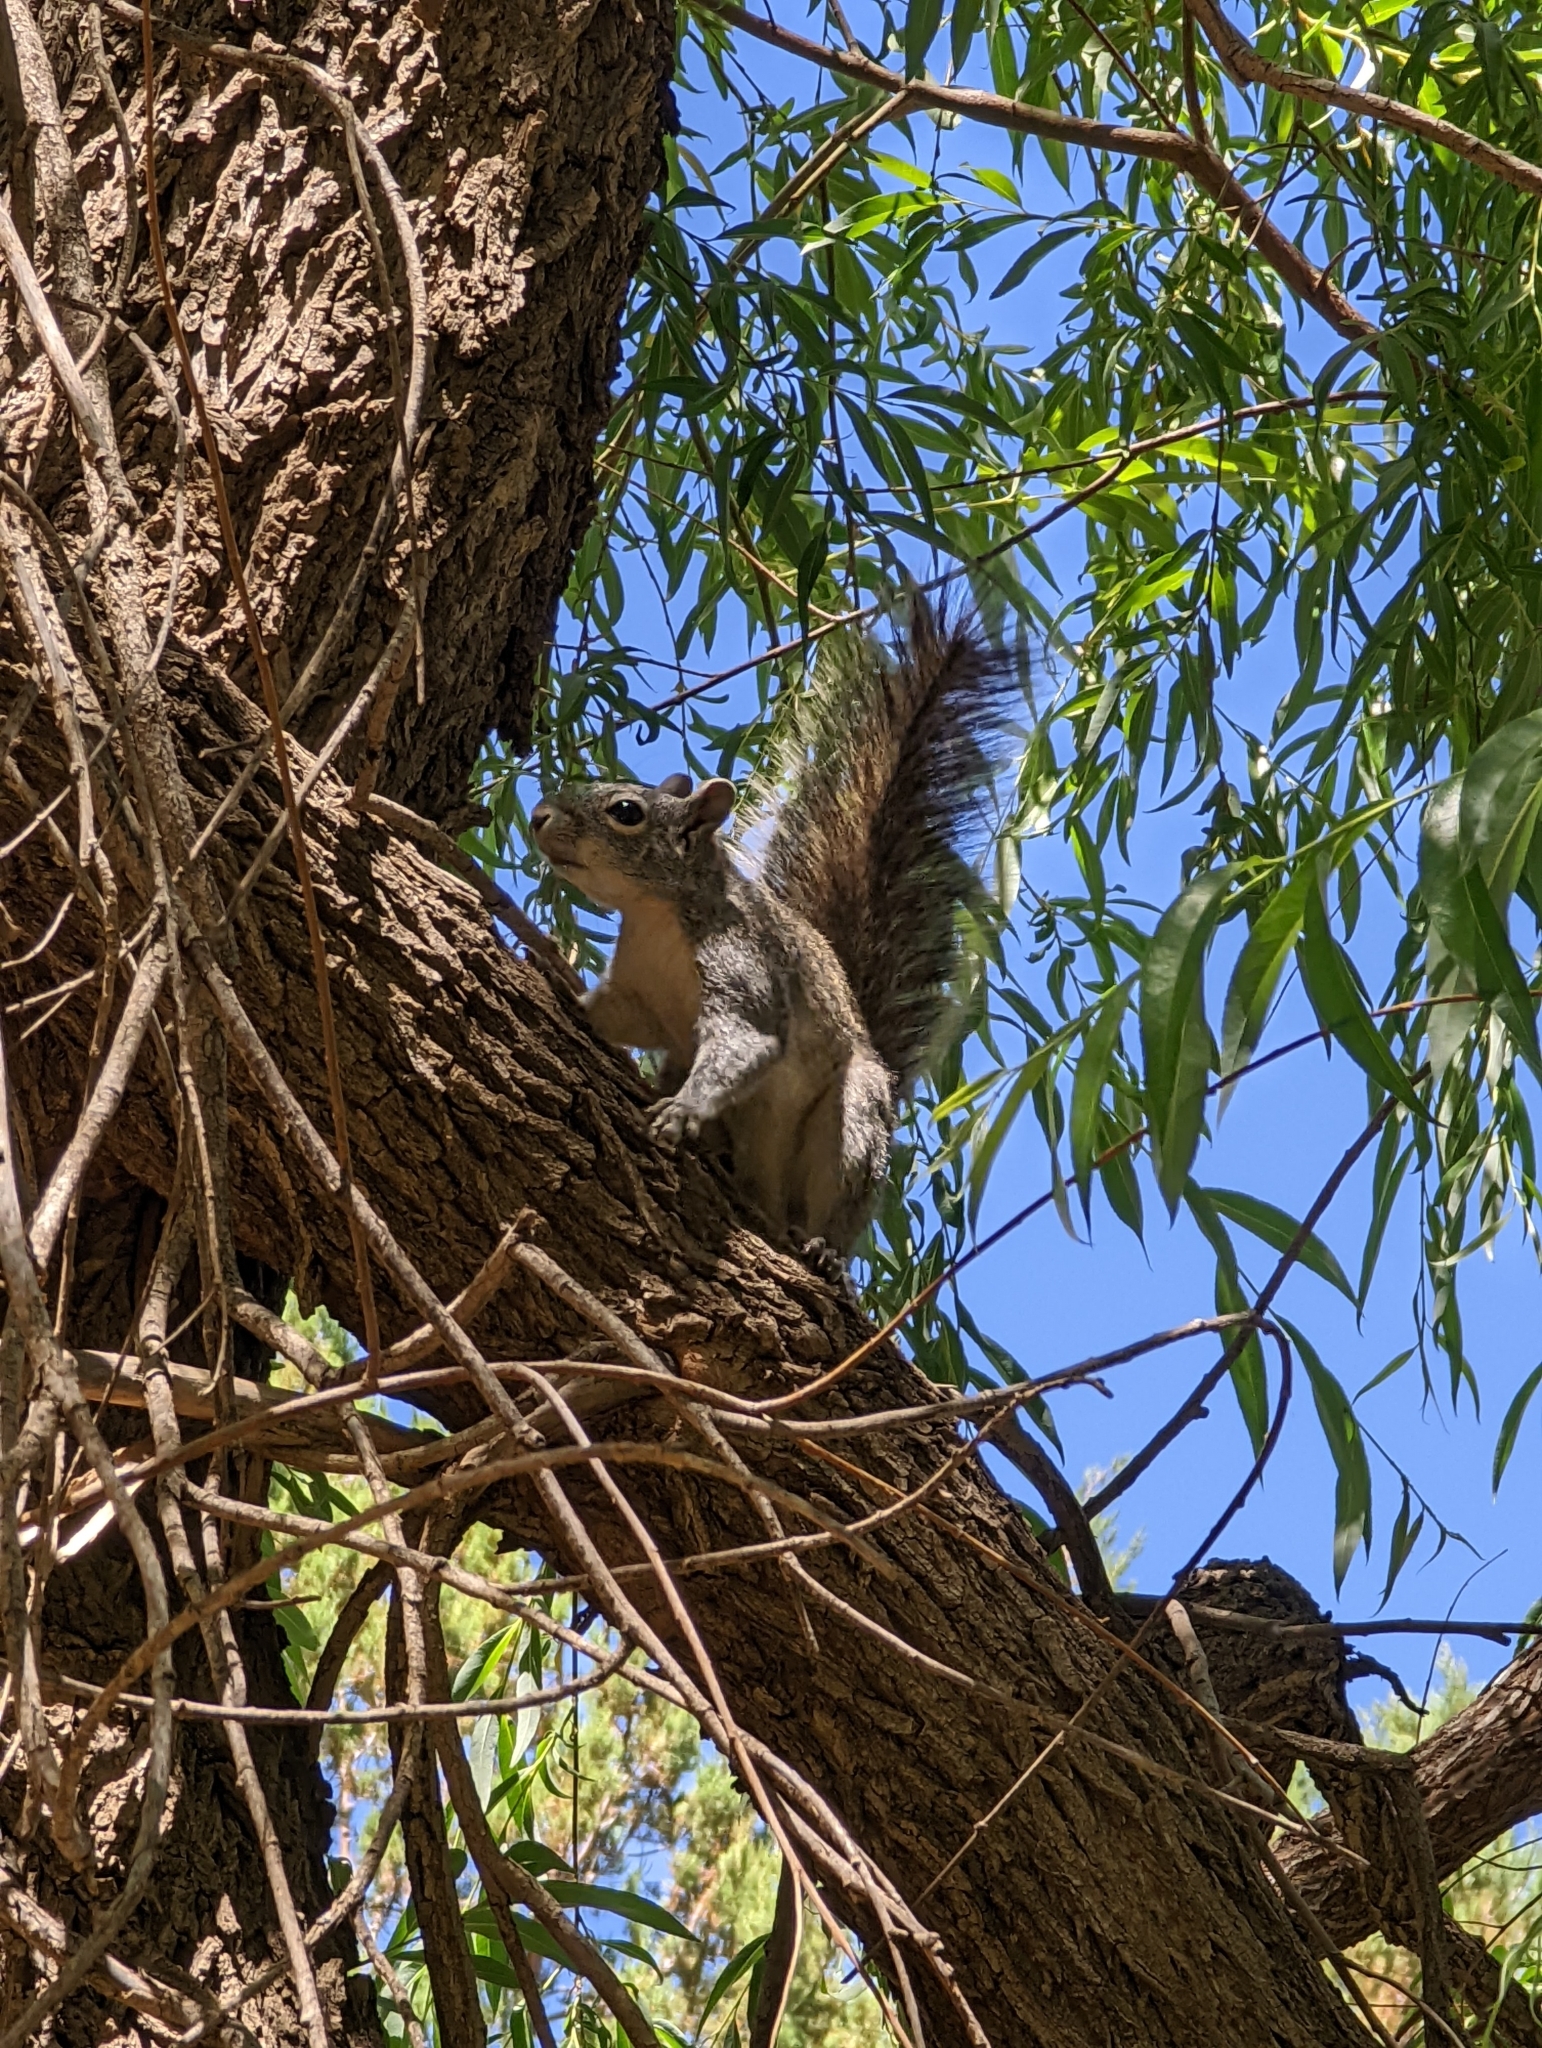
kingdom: Animalia
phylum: Chordata
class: Mammalia
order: Rodentia
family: Sciuridae
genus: Sciurus
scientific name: Sciurus arizonensis
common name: Arizona gray squirrel
